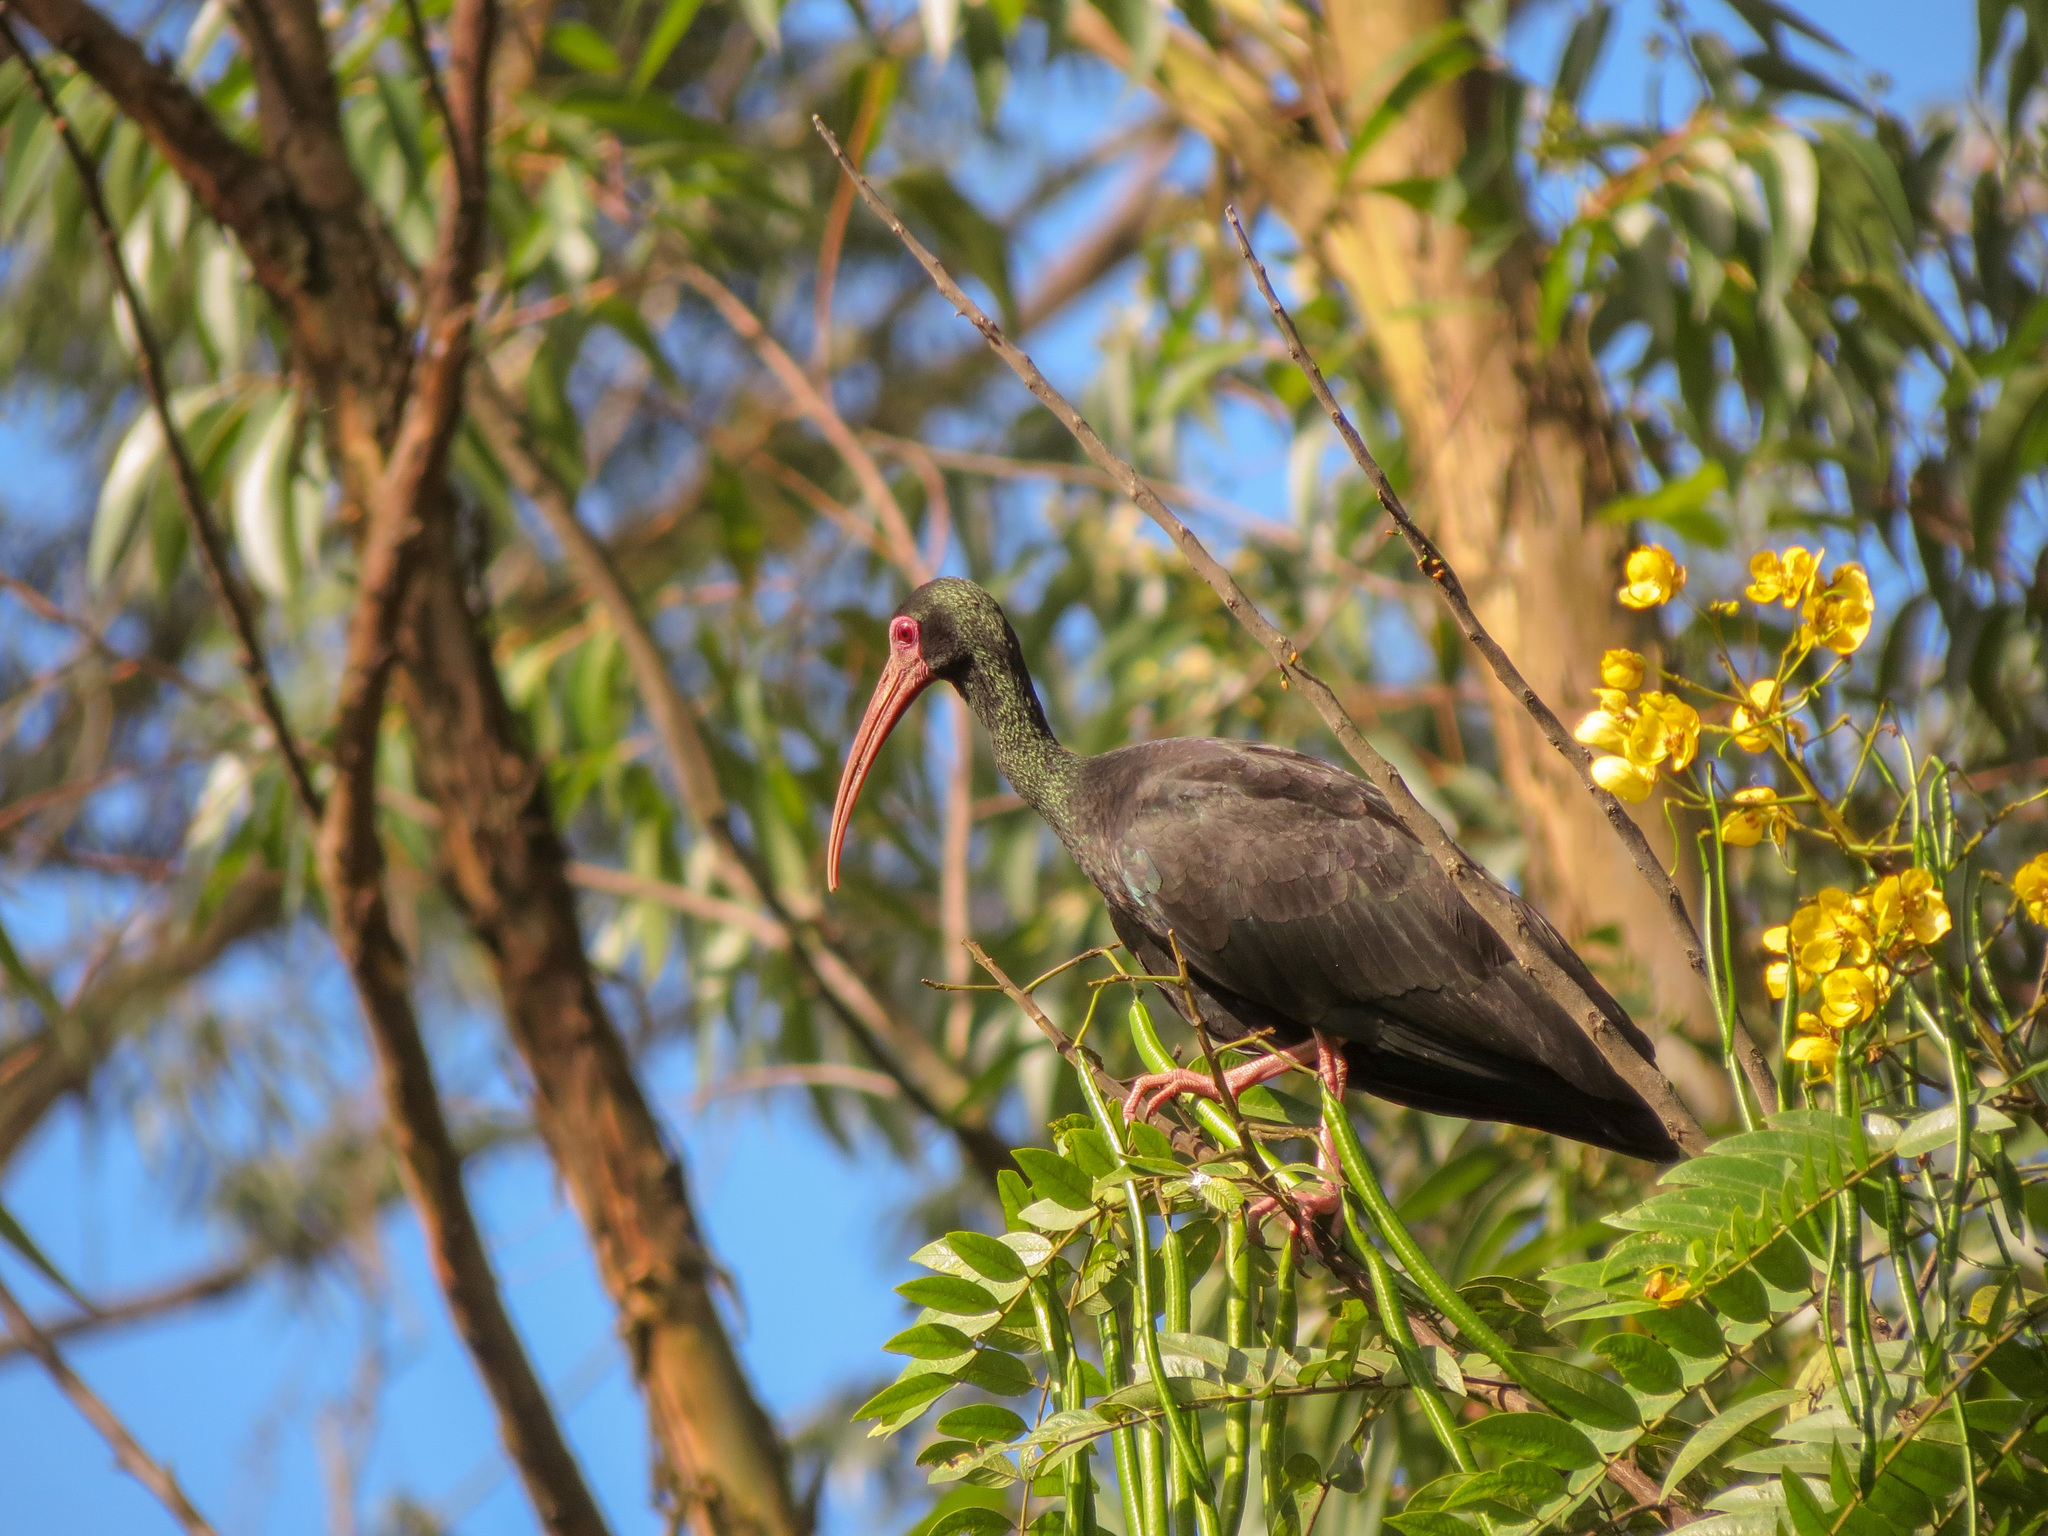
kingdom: Animalia
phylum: Chordata
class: Aves
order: Pelecaniformes
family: Threskiornithidae
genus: Phimosus
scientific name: Phimosus infuscatus
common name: Bare-faced ibis
